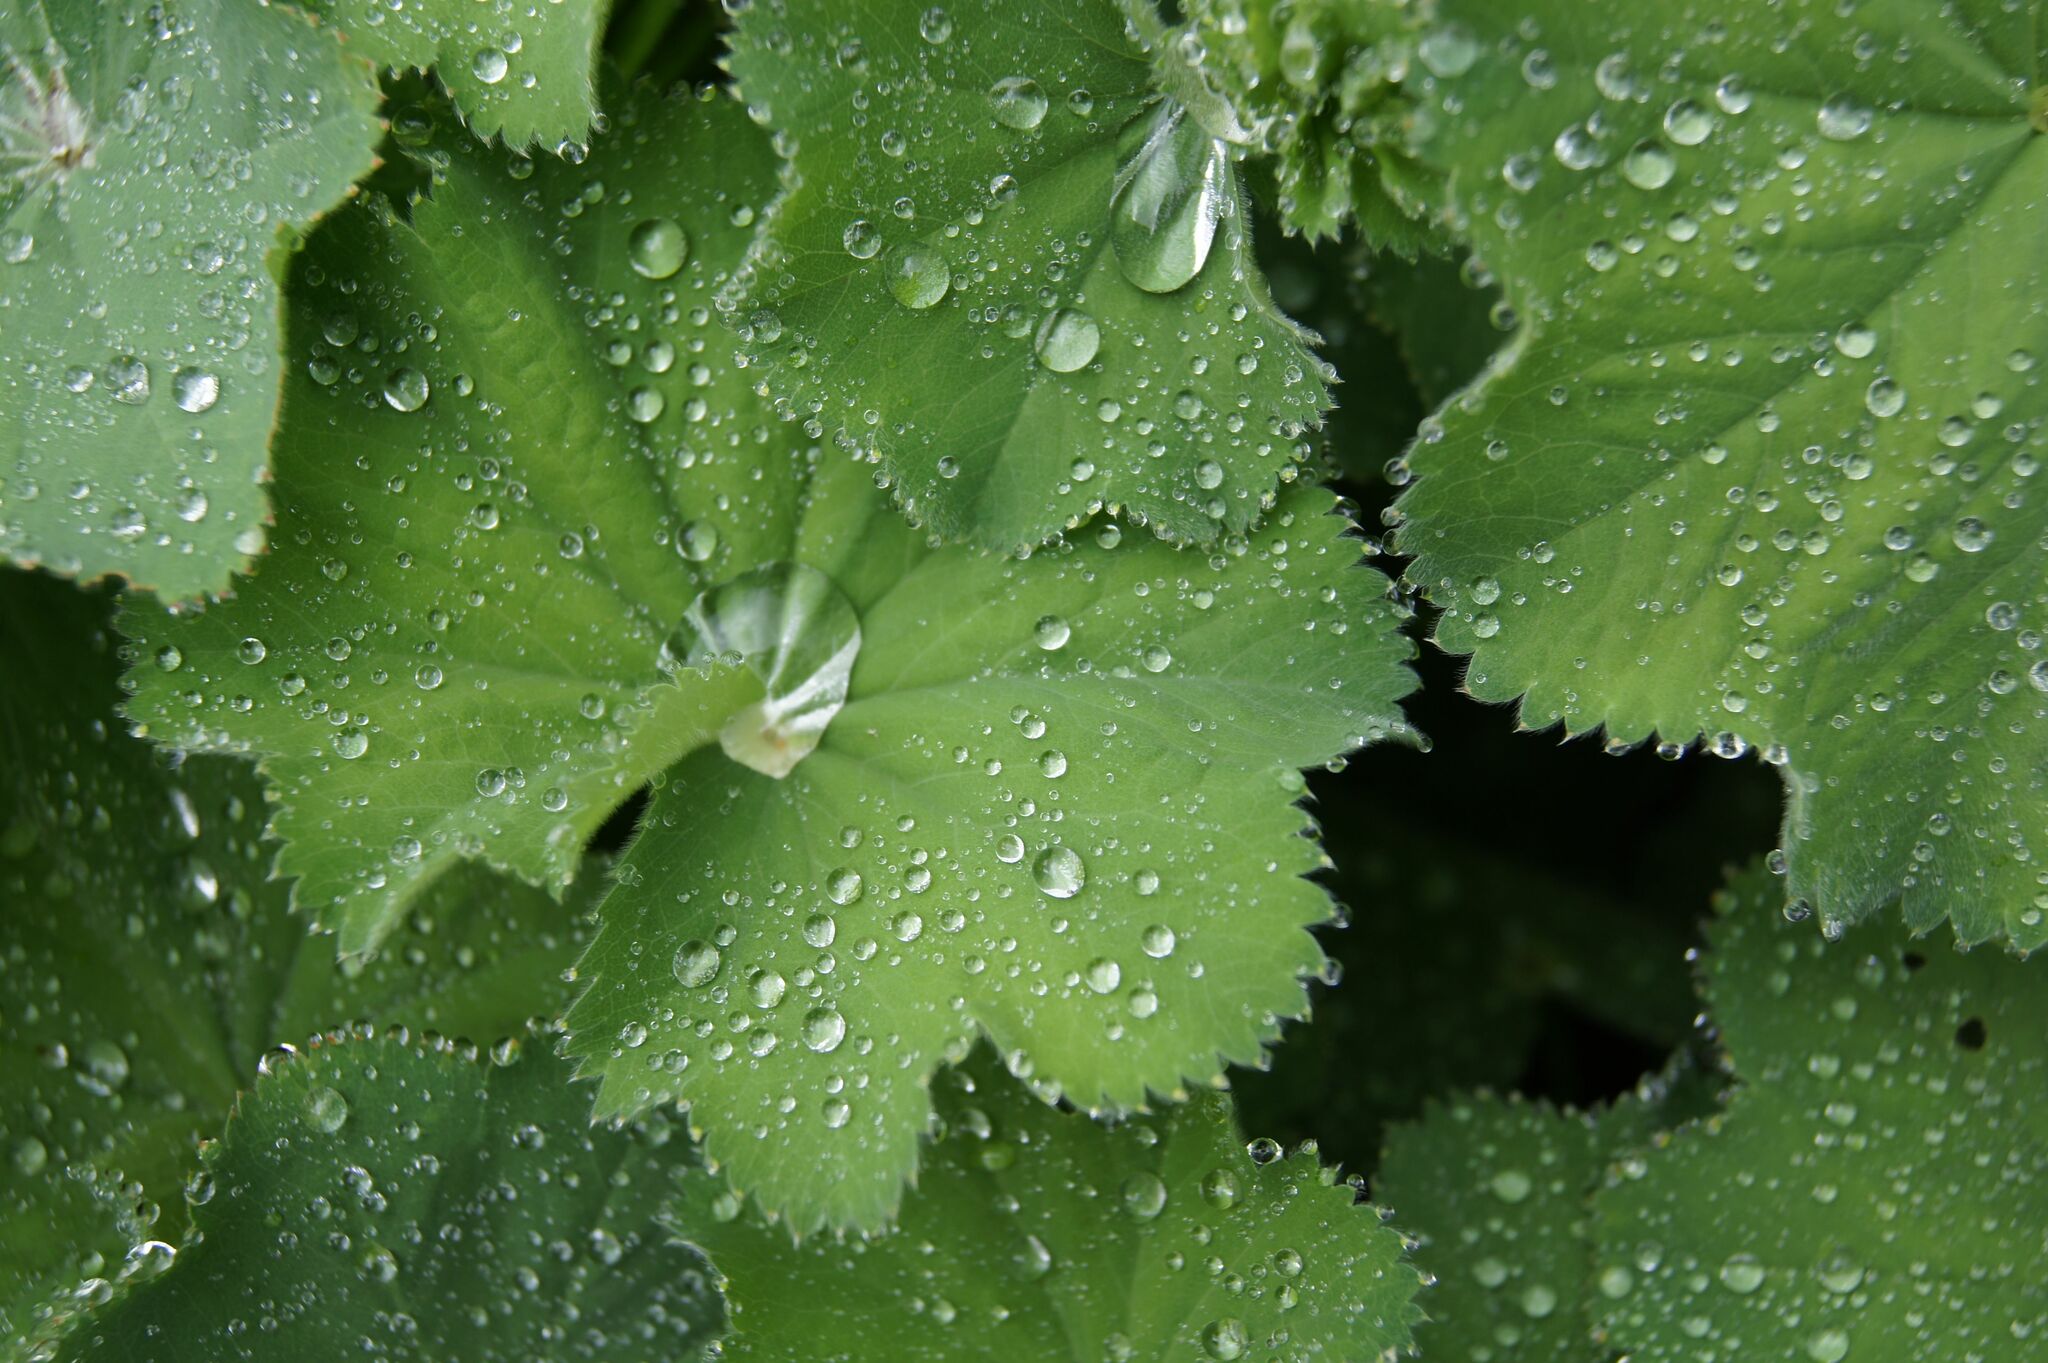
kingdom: Plantae
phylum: Tracheophyta
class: Magnoliopsida
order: Rosales
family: Rosaceae
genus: Alchemilla
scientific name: Alchemilla mollis
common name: Lady's-mantle
